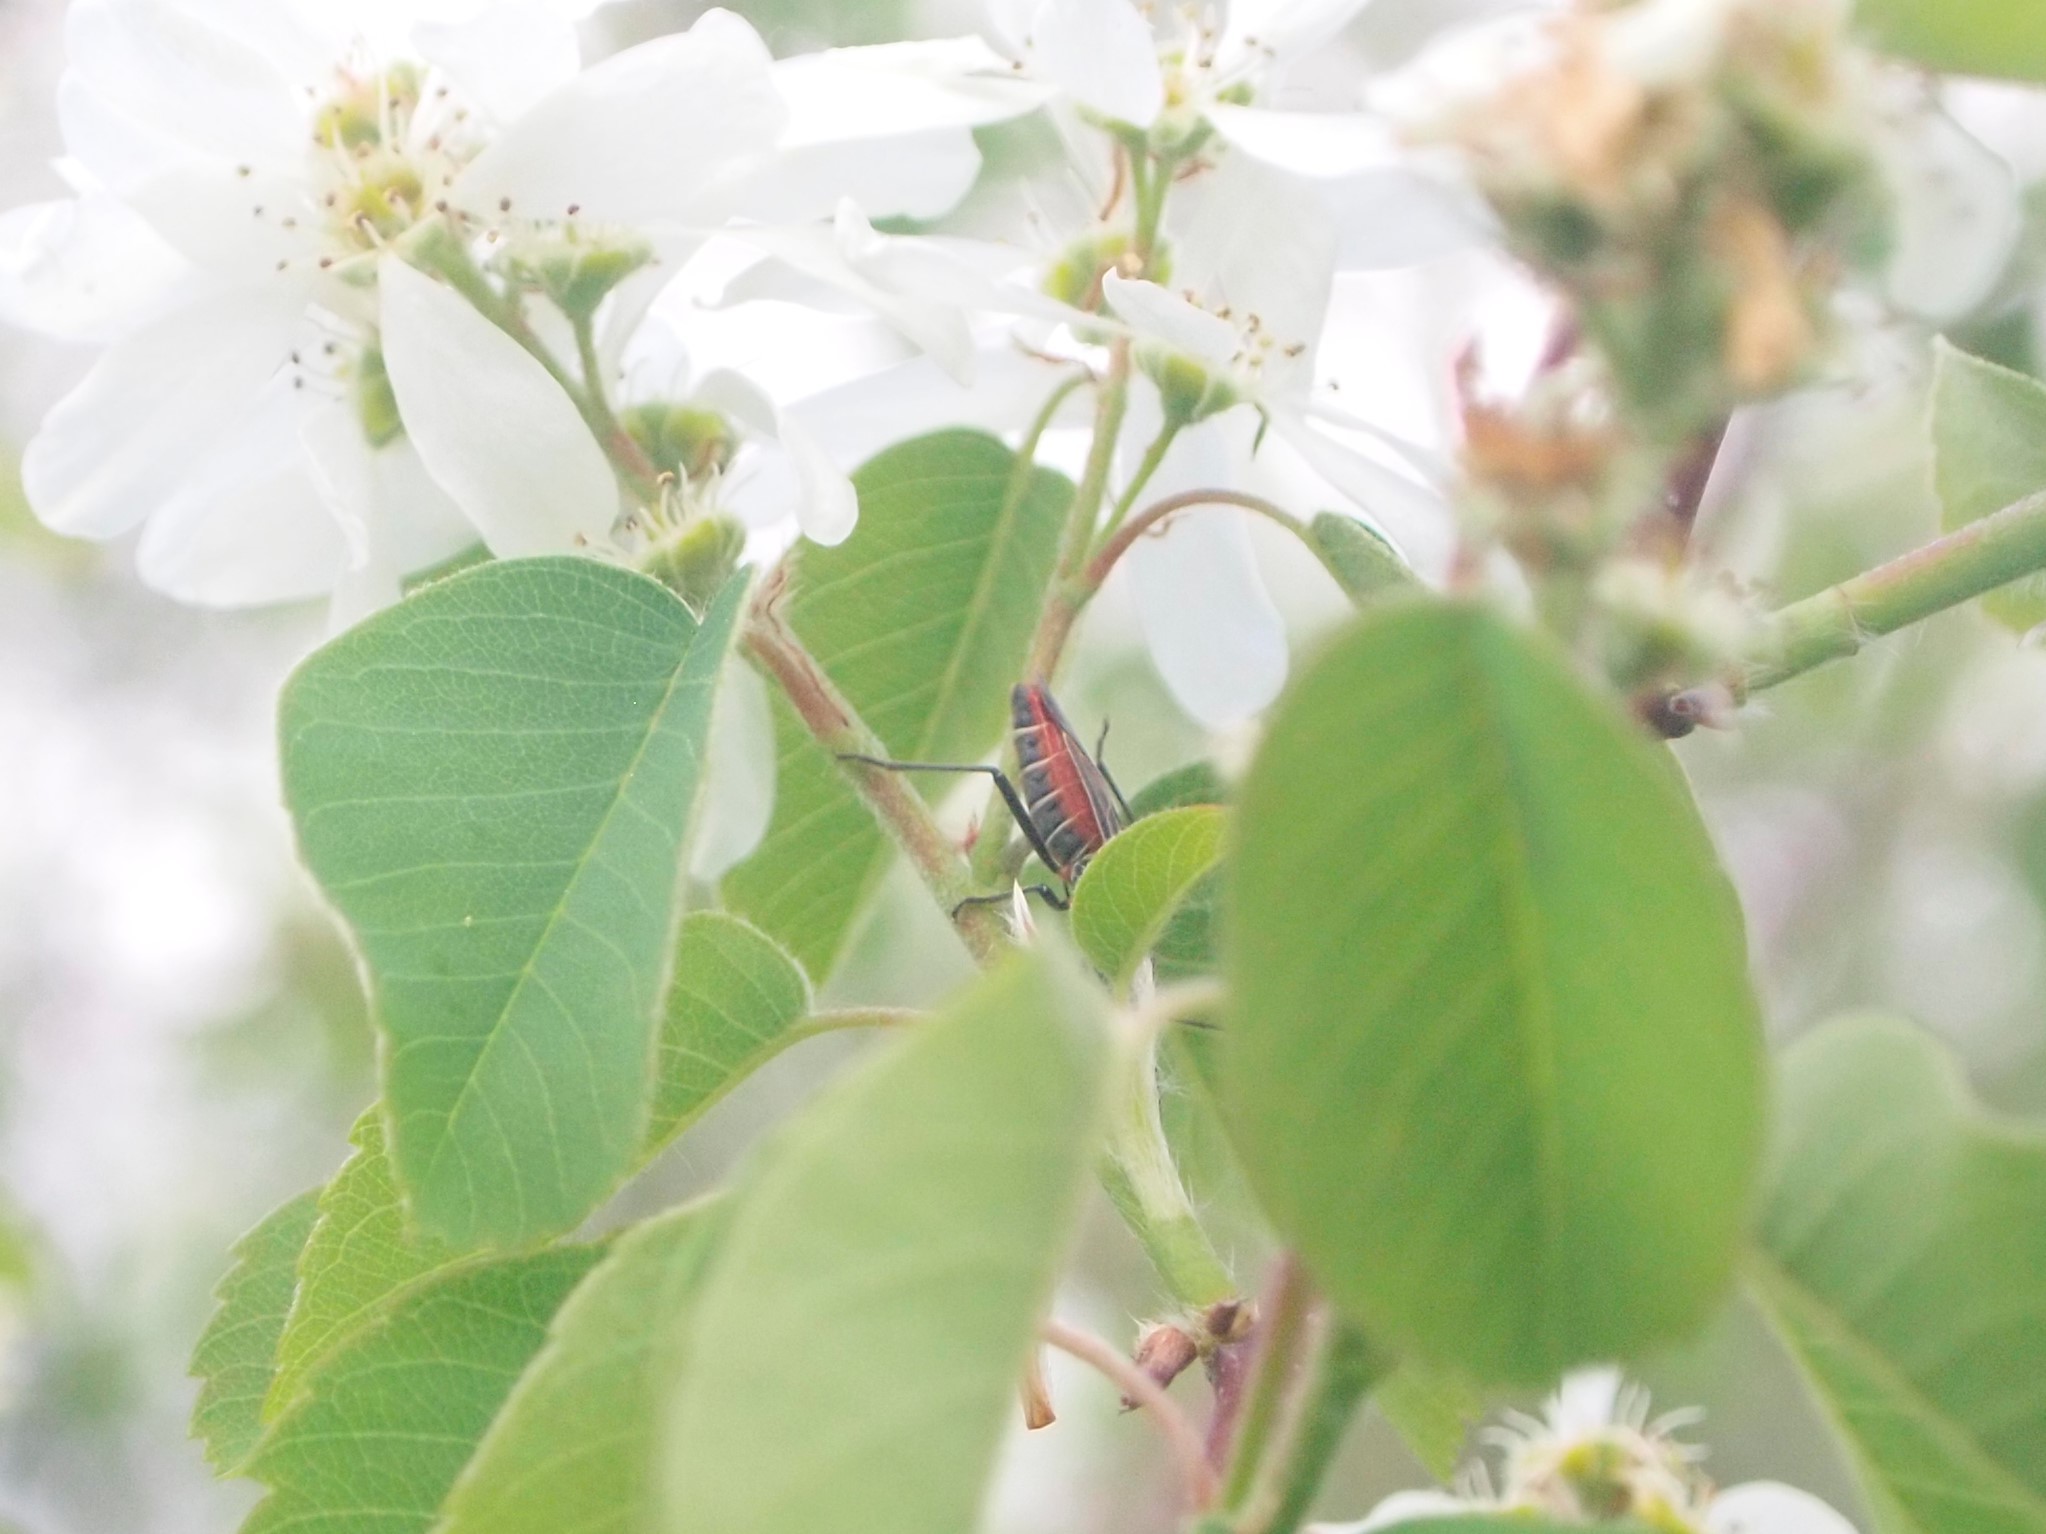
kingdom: Animalia
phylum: Arthropoda
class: Insecta
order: Hemiptera
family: Rhopalidae
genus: Boisea
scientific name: Boisea rubrolineata
